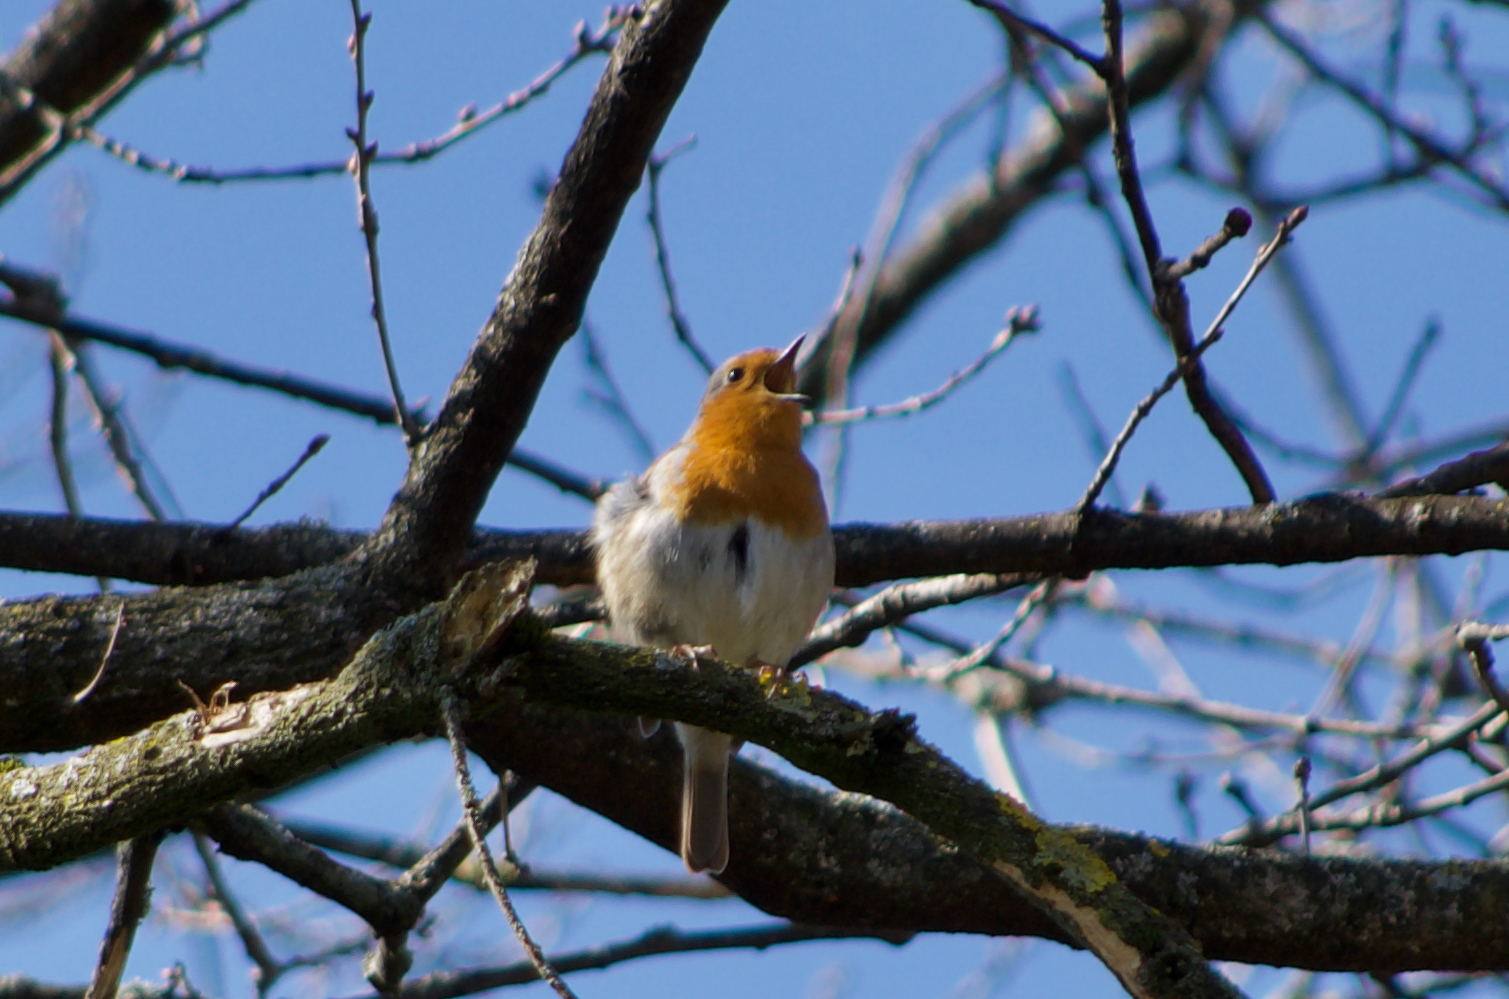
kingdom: Animalia
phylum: Chordata
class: Aves
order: Passeriformes
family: Muscicapidae
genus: Erithacus
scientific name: Erithacus rubecula
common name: European robin
